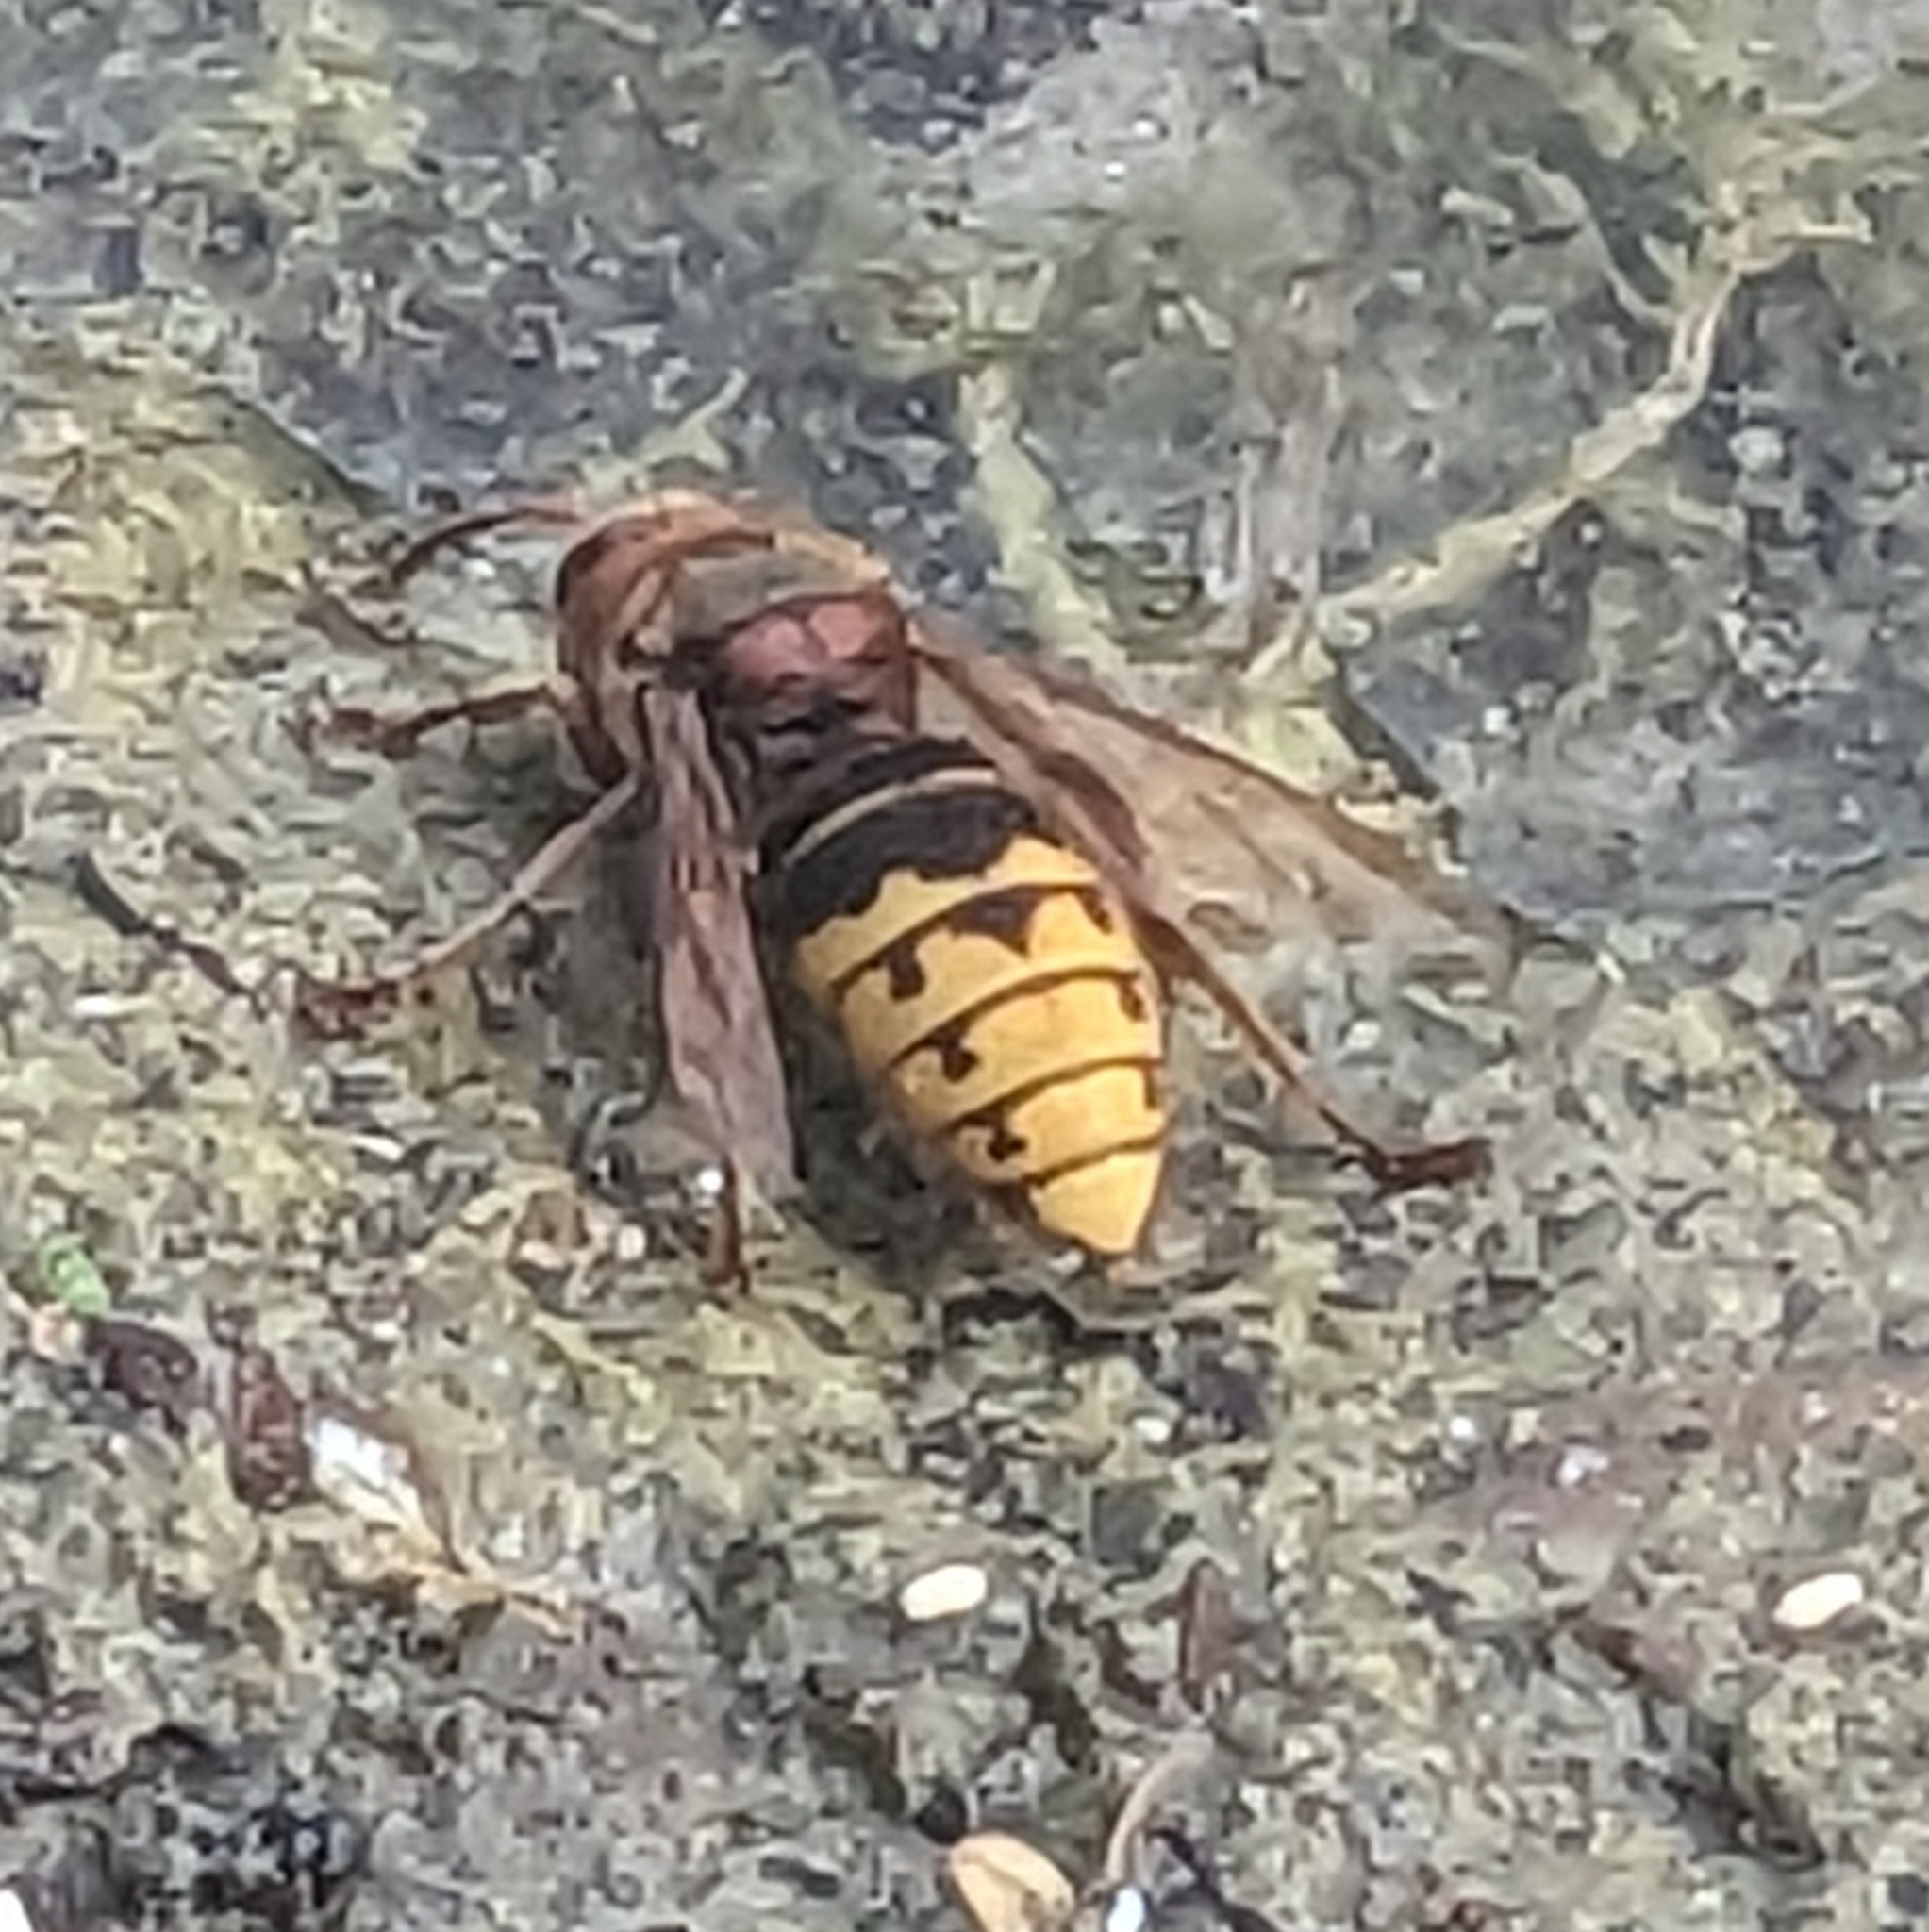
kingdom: Animalia
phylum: Arthropoda
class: Insecta
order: Hymenoptera
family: Vespidae
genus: Vespa
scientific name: Vespa crabro
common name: Hornet
